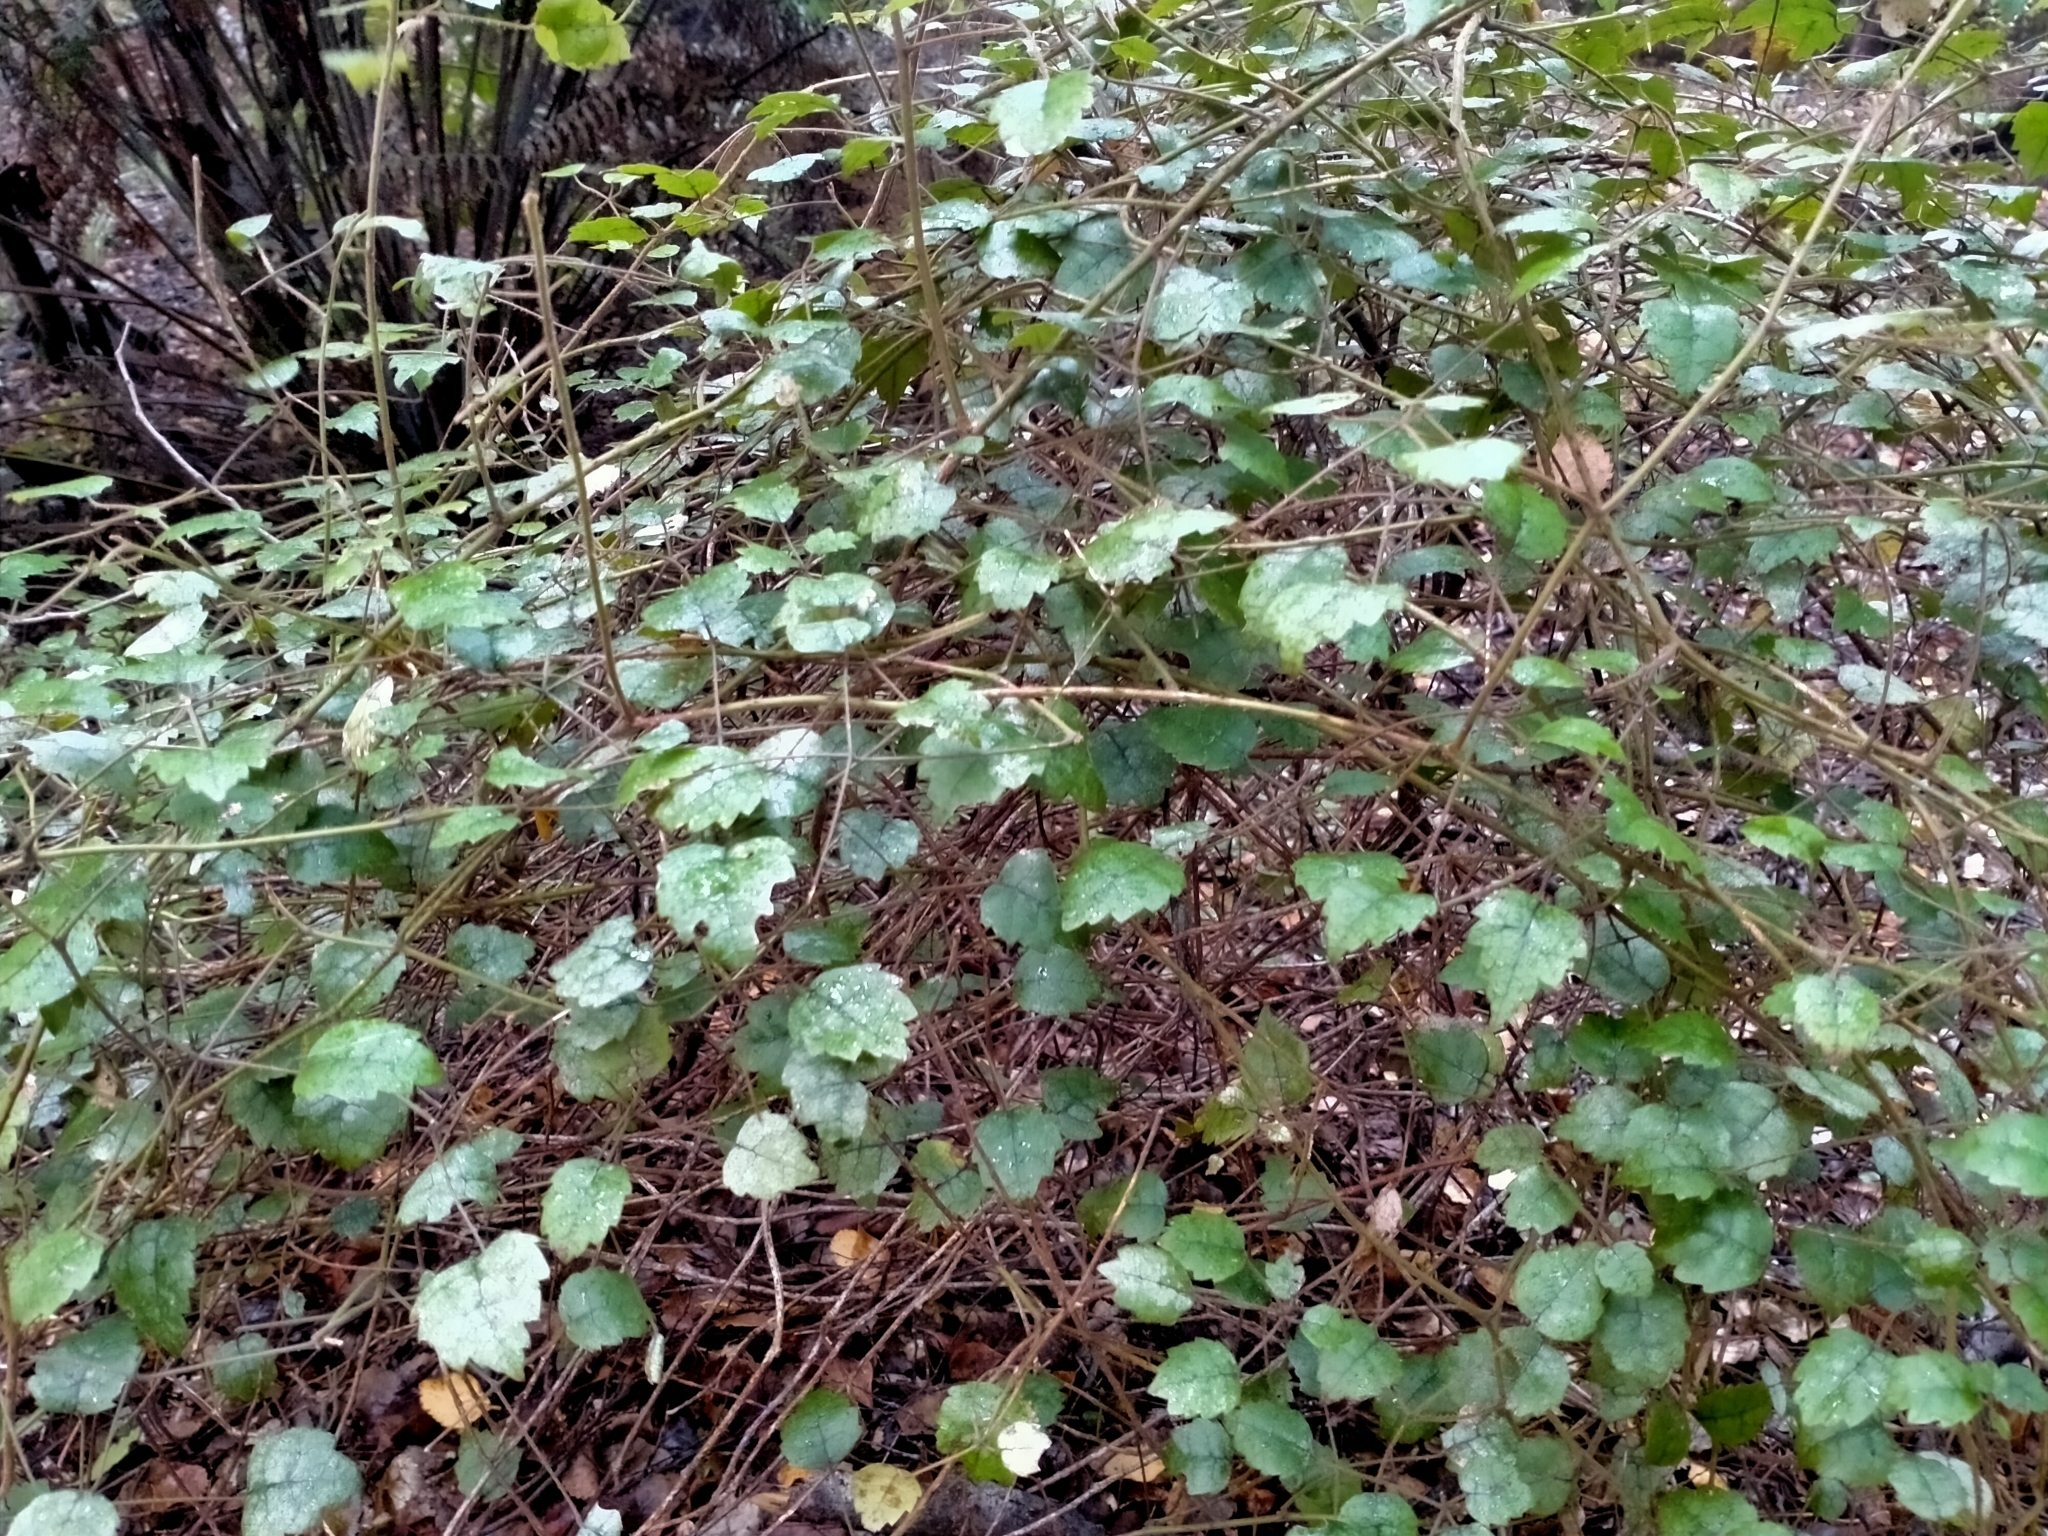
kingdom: Plantae
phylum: Tracheophyta
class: Magnoliopsida
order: Rosales
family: Rosaceae
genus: Rubus
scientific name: Rubus australis
